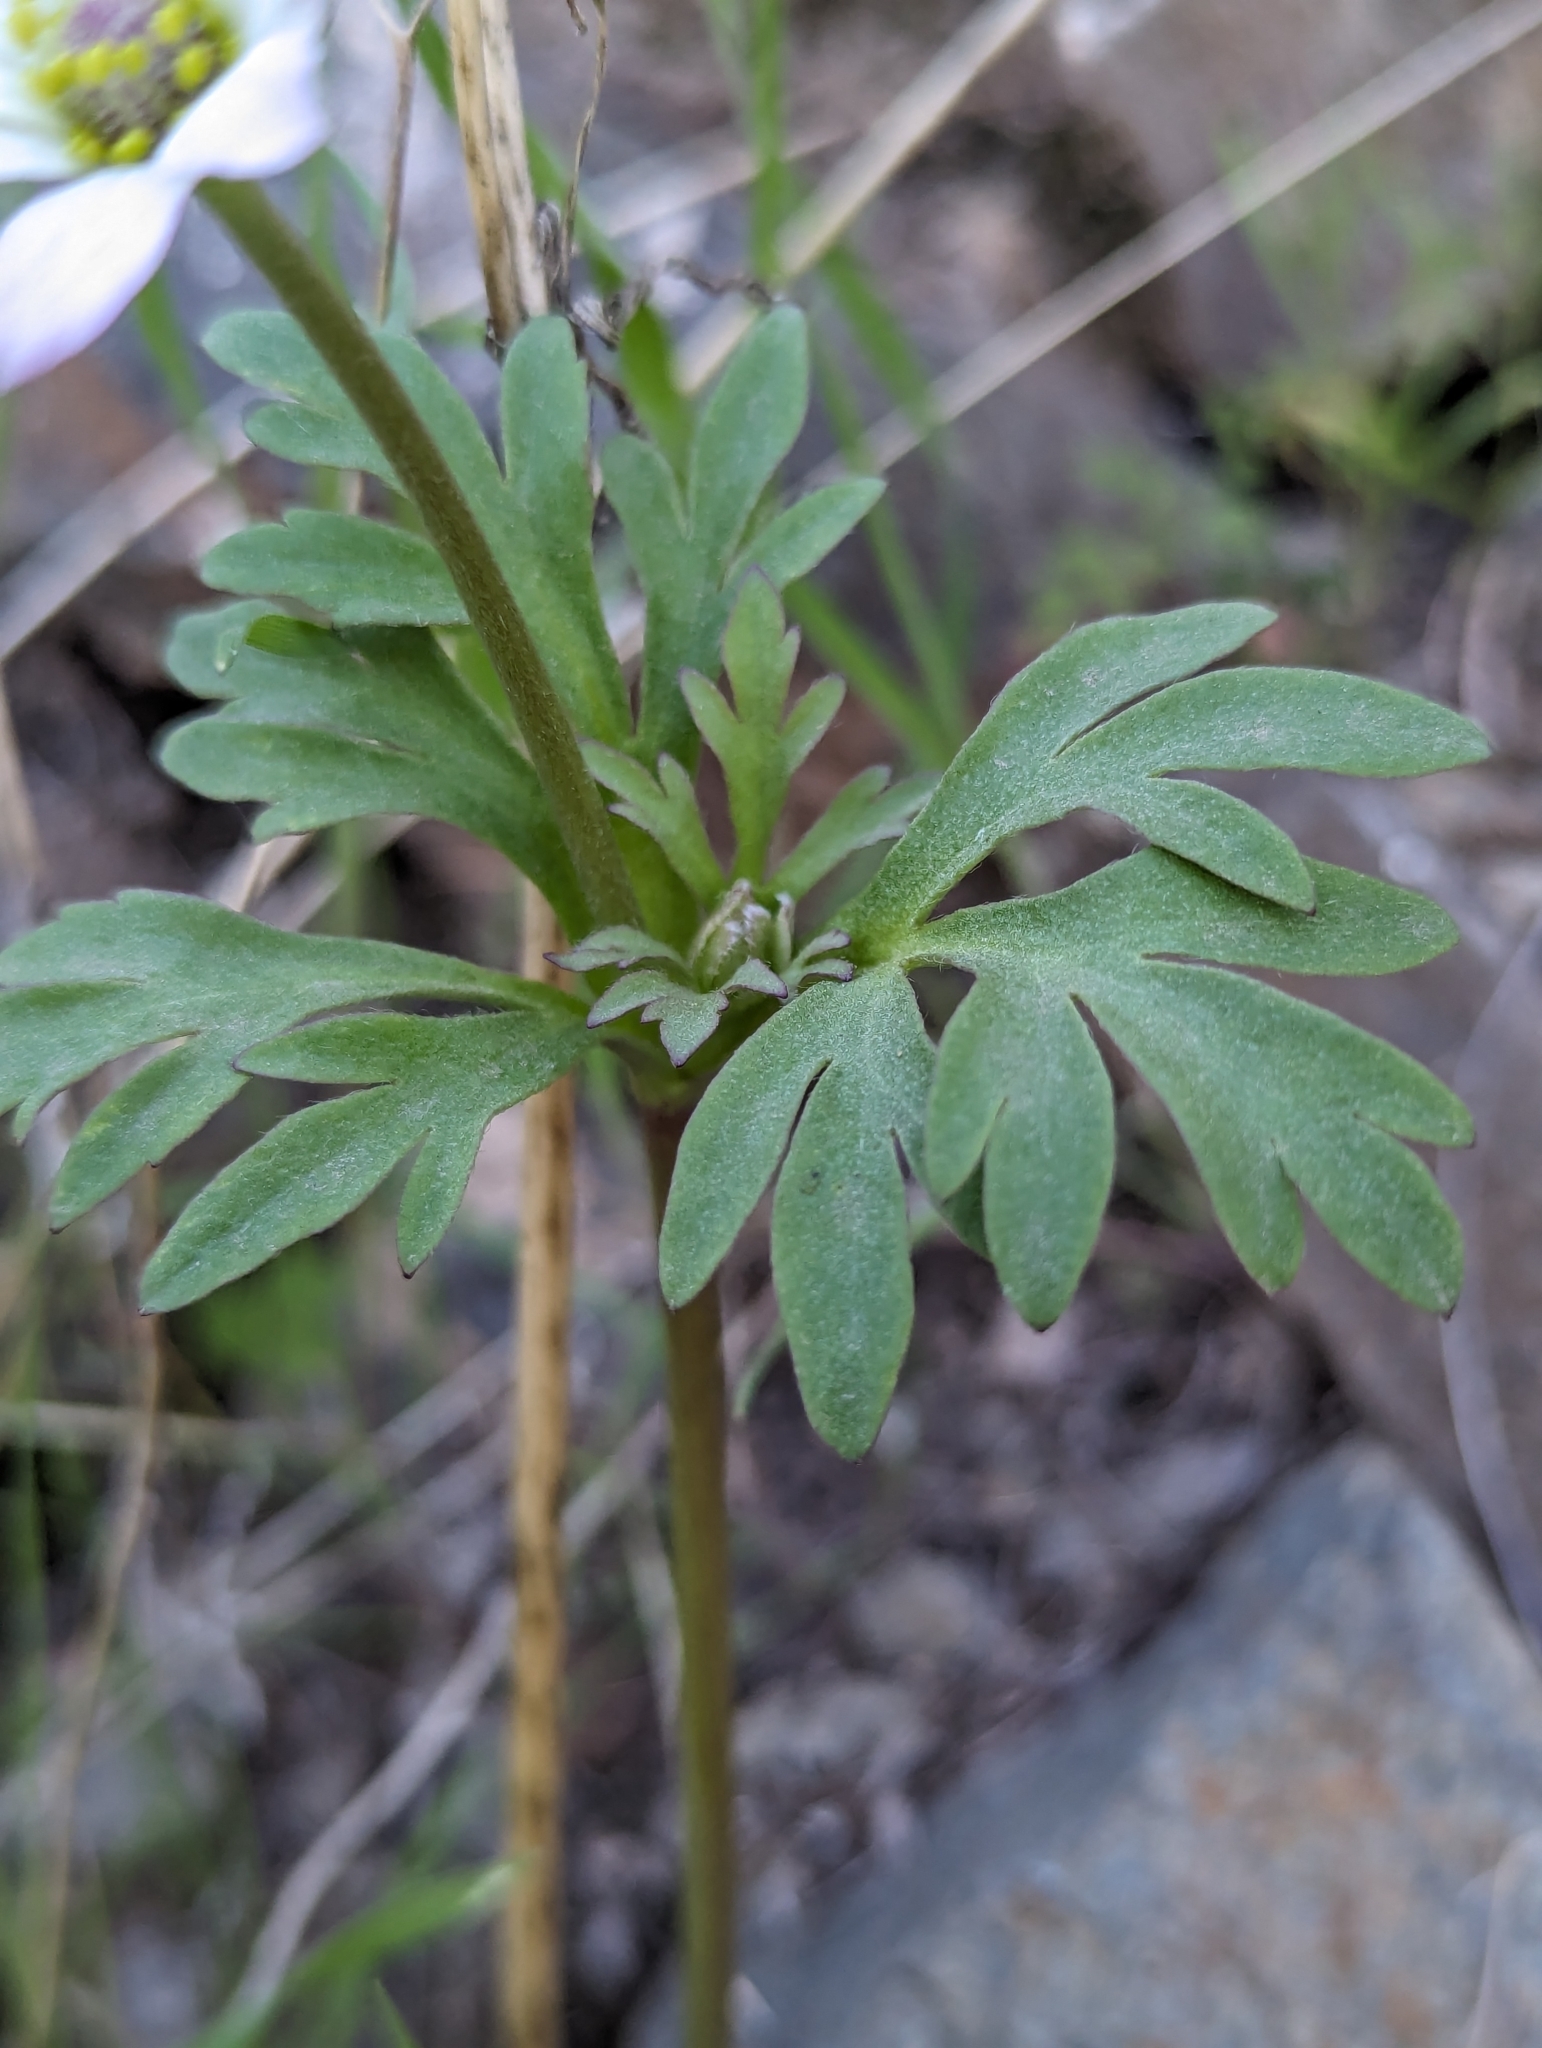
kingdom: Plantae
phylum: Tracheophyta
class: Magnoliopsida
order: Ranunculales
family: Ranunculaceae
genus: Anemone
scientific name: Anemone tuberosa
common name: Desert anemone
